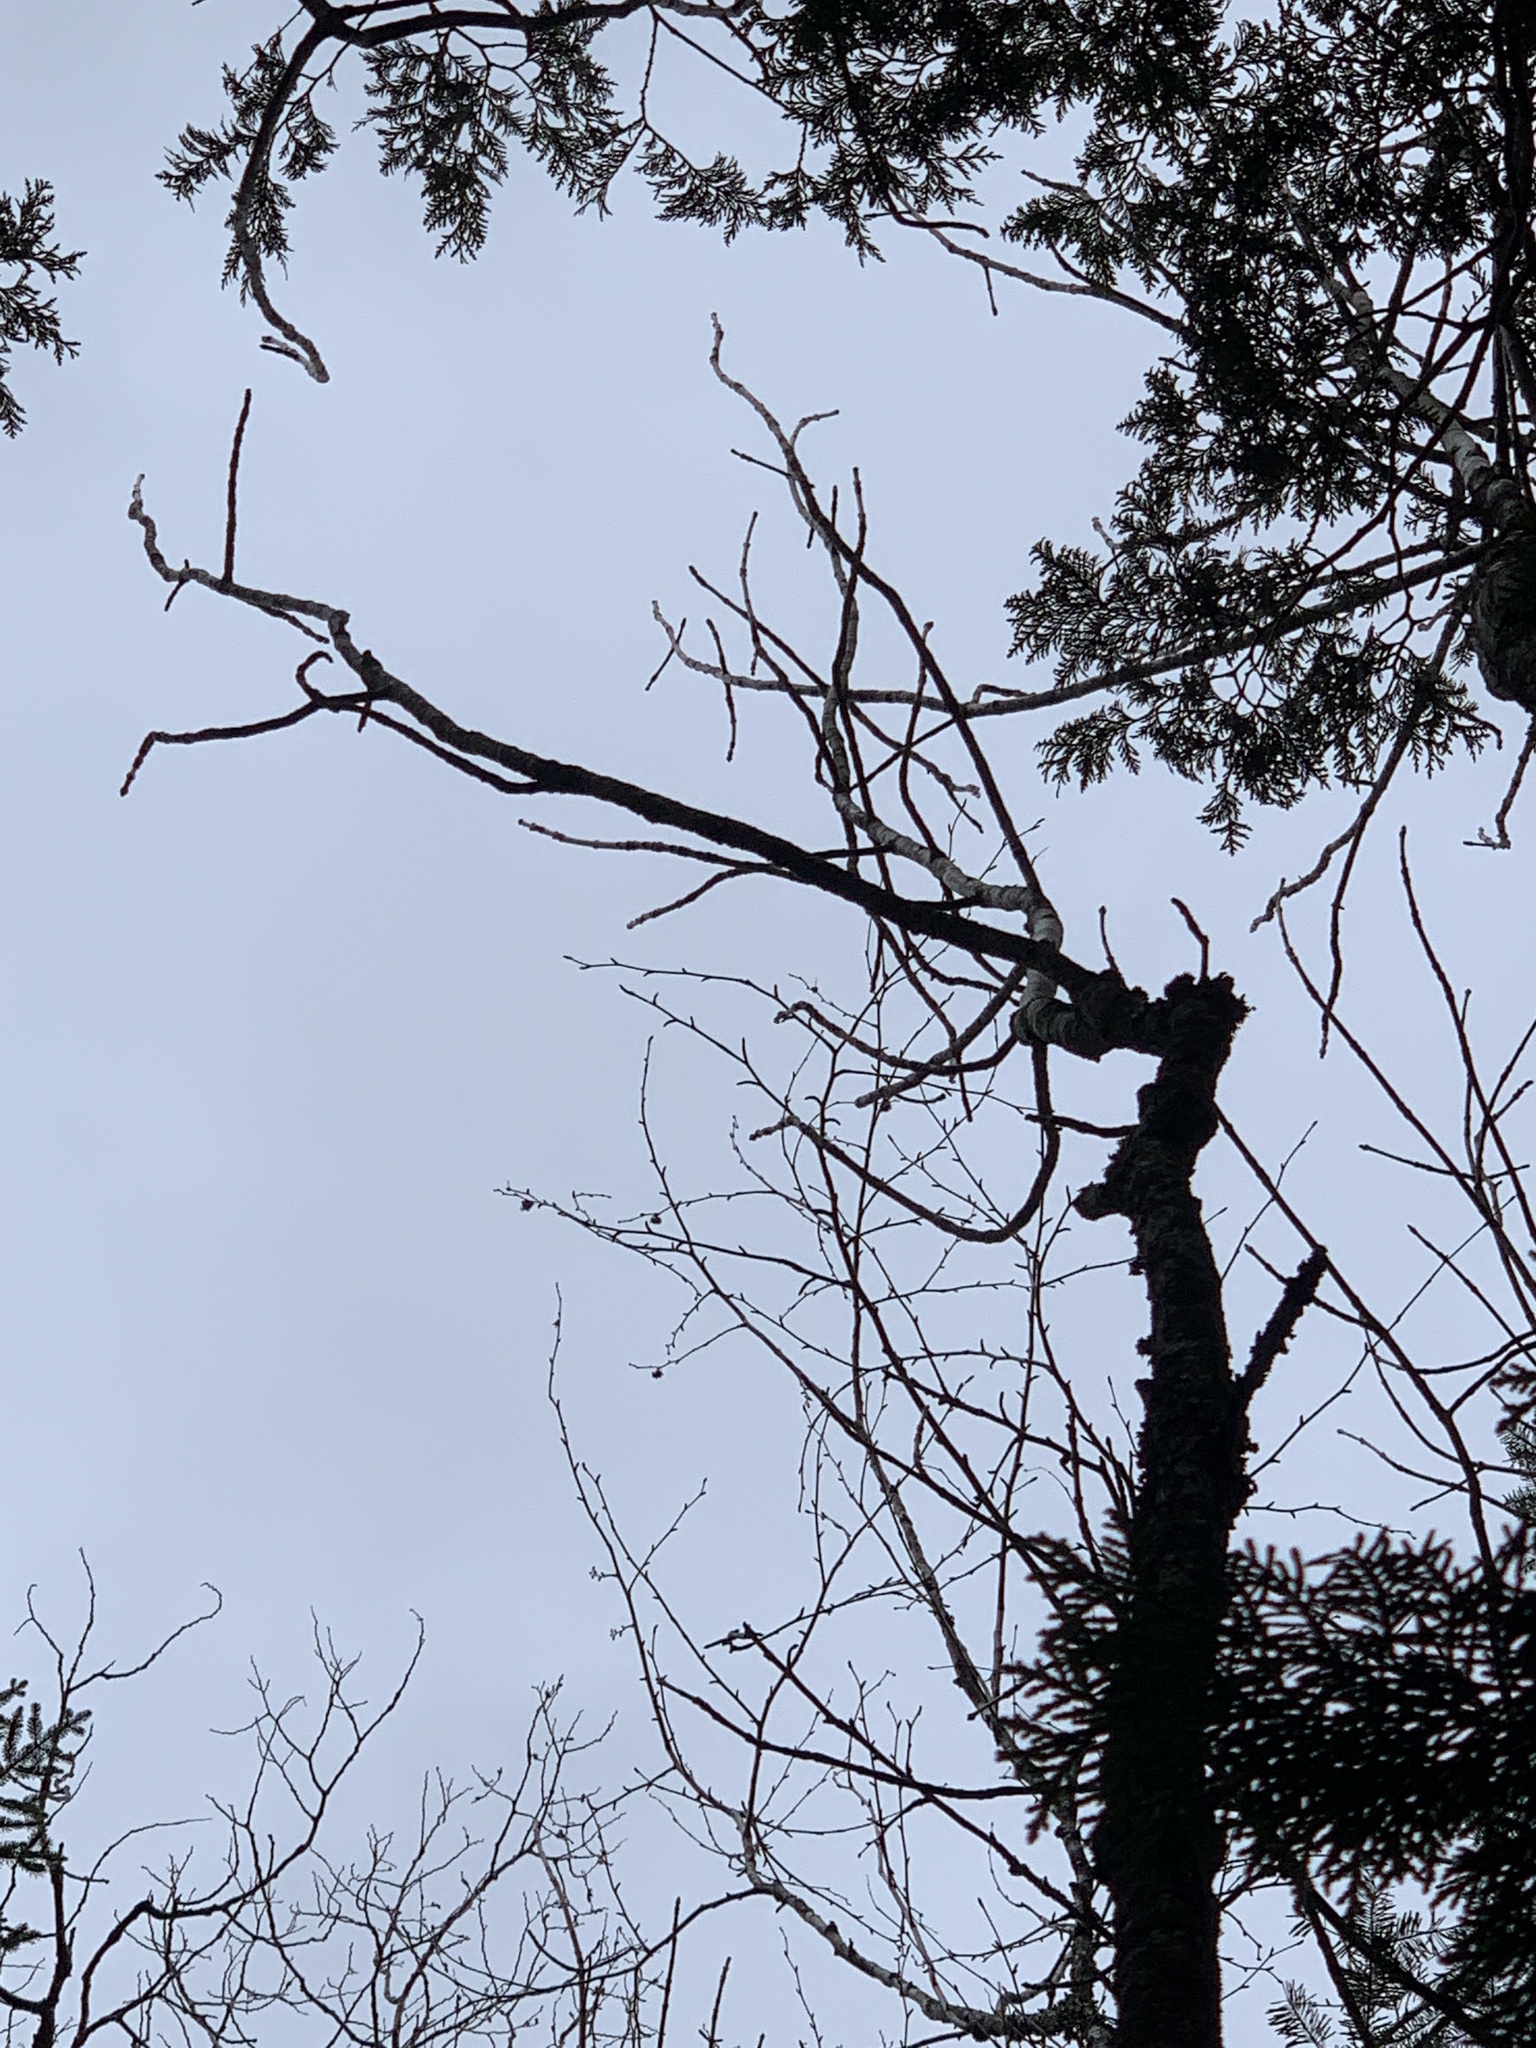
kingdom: Plantae
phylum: Tracheophyta
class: Magnoliopsida
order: Lamiales
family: Oleaceae
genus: Fraxinus
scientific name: Fraxinus nigra
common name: Black ash
